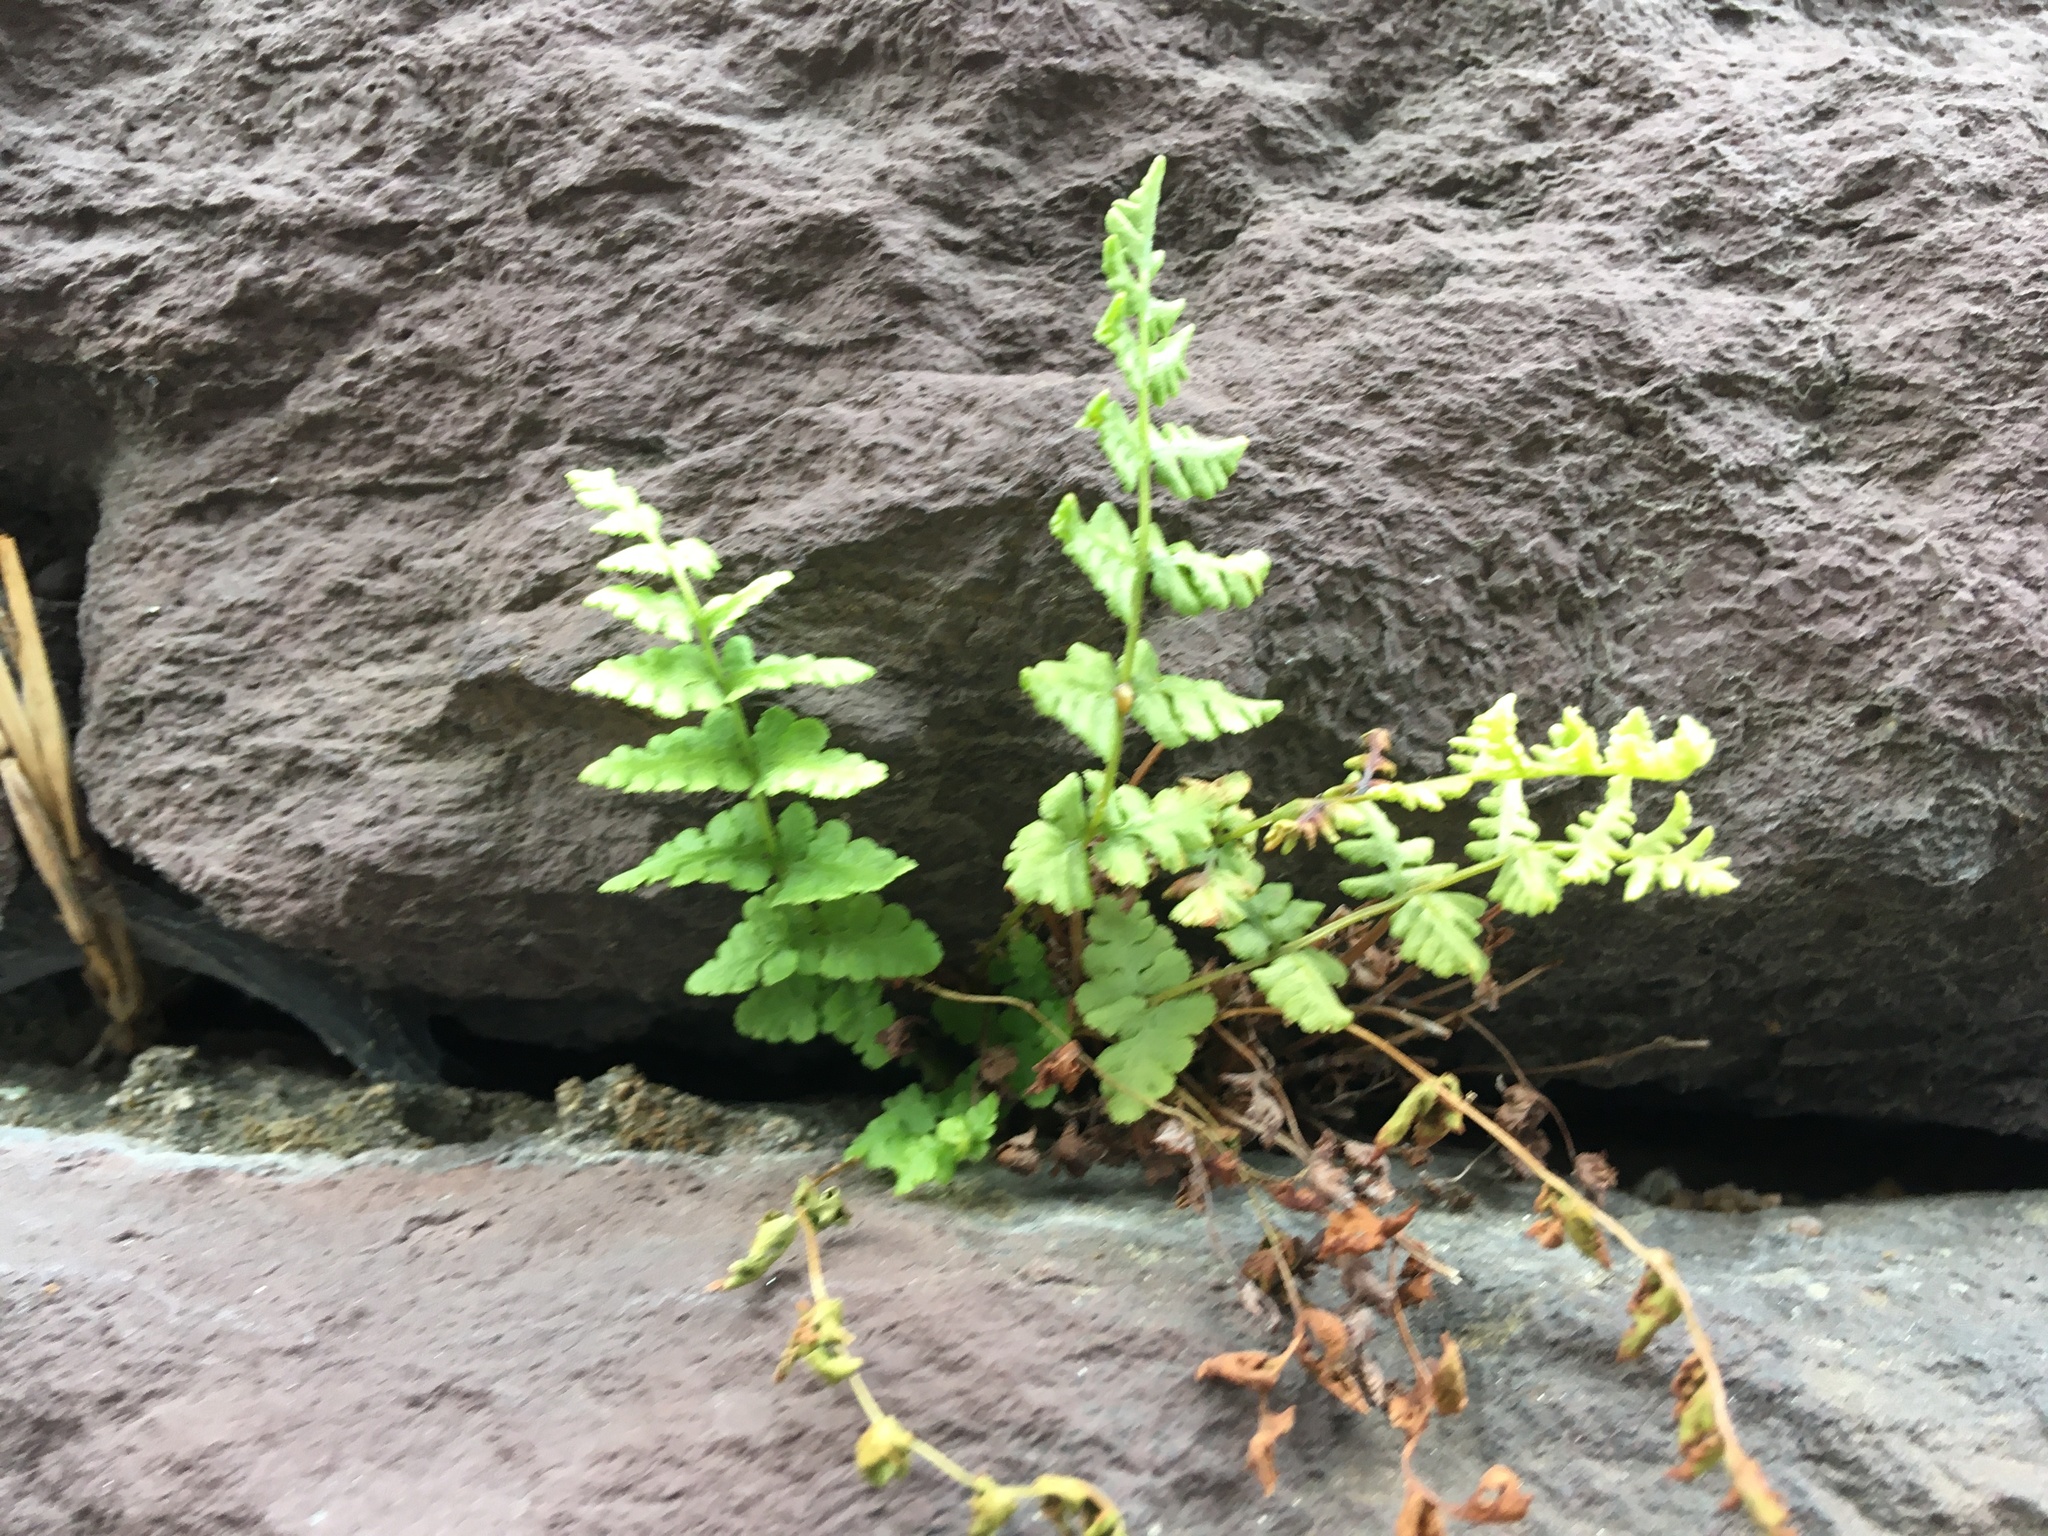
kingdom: Plantae
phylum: Tracheophyta
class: Polypodiopsida
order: Polypodiales
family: Woodsiaceae
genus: Physematium
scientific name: Physematium obtusum
